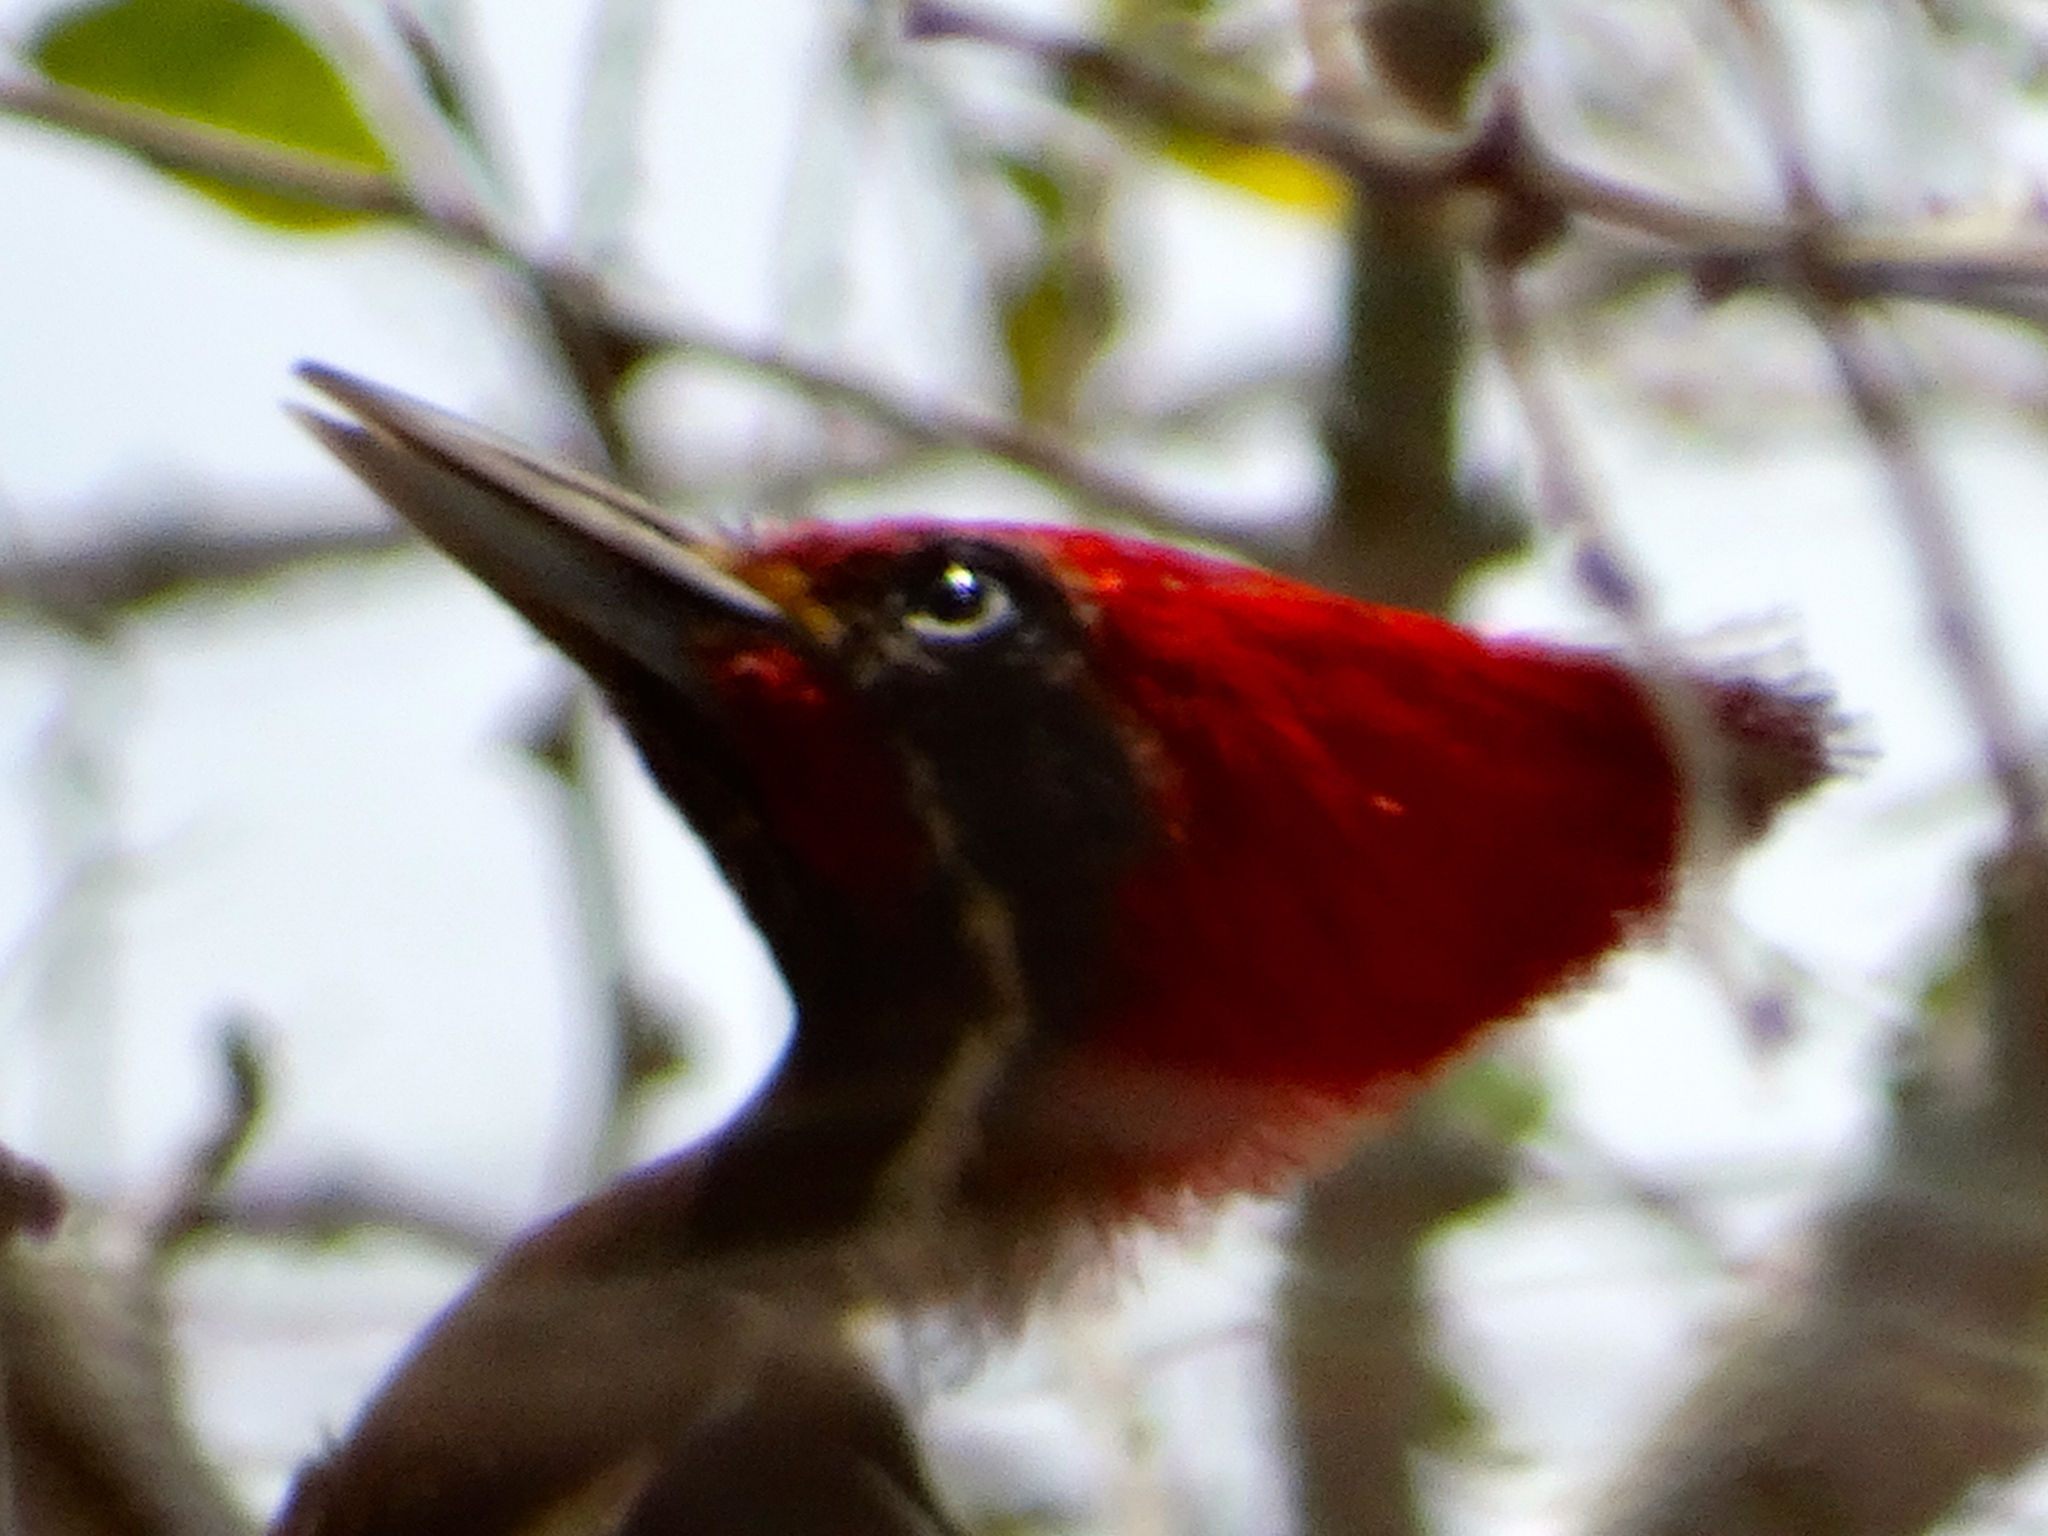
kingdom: Animalia
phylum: Chordata
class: Aves
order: Piciformes
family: Picidae
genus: Dryocopus
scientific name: Dryocopus lineatus
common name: Lineated woodpecker
